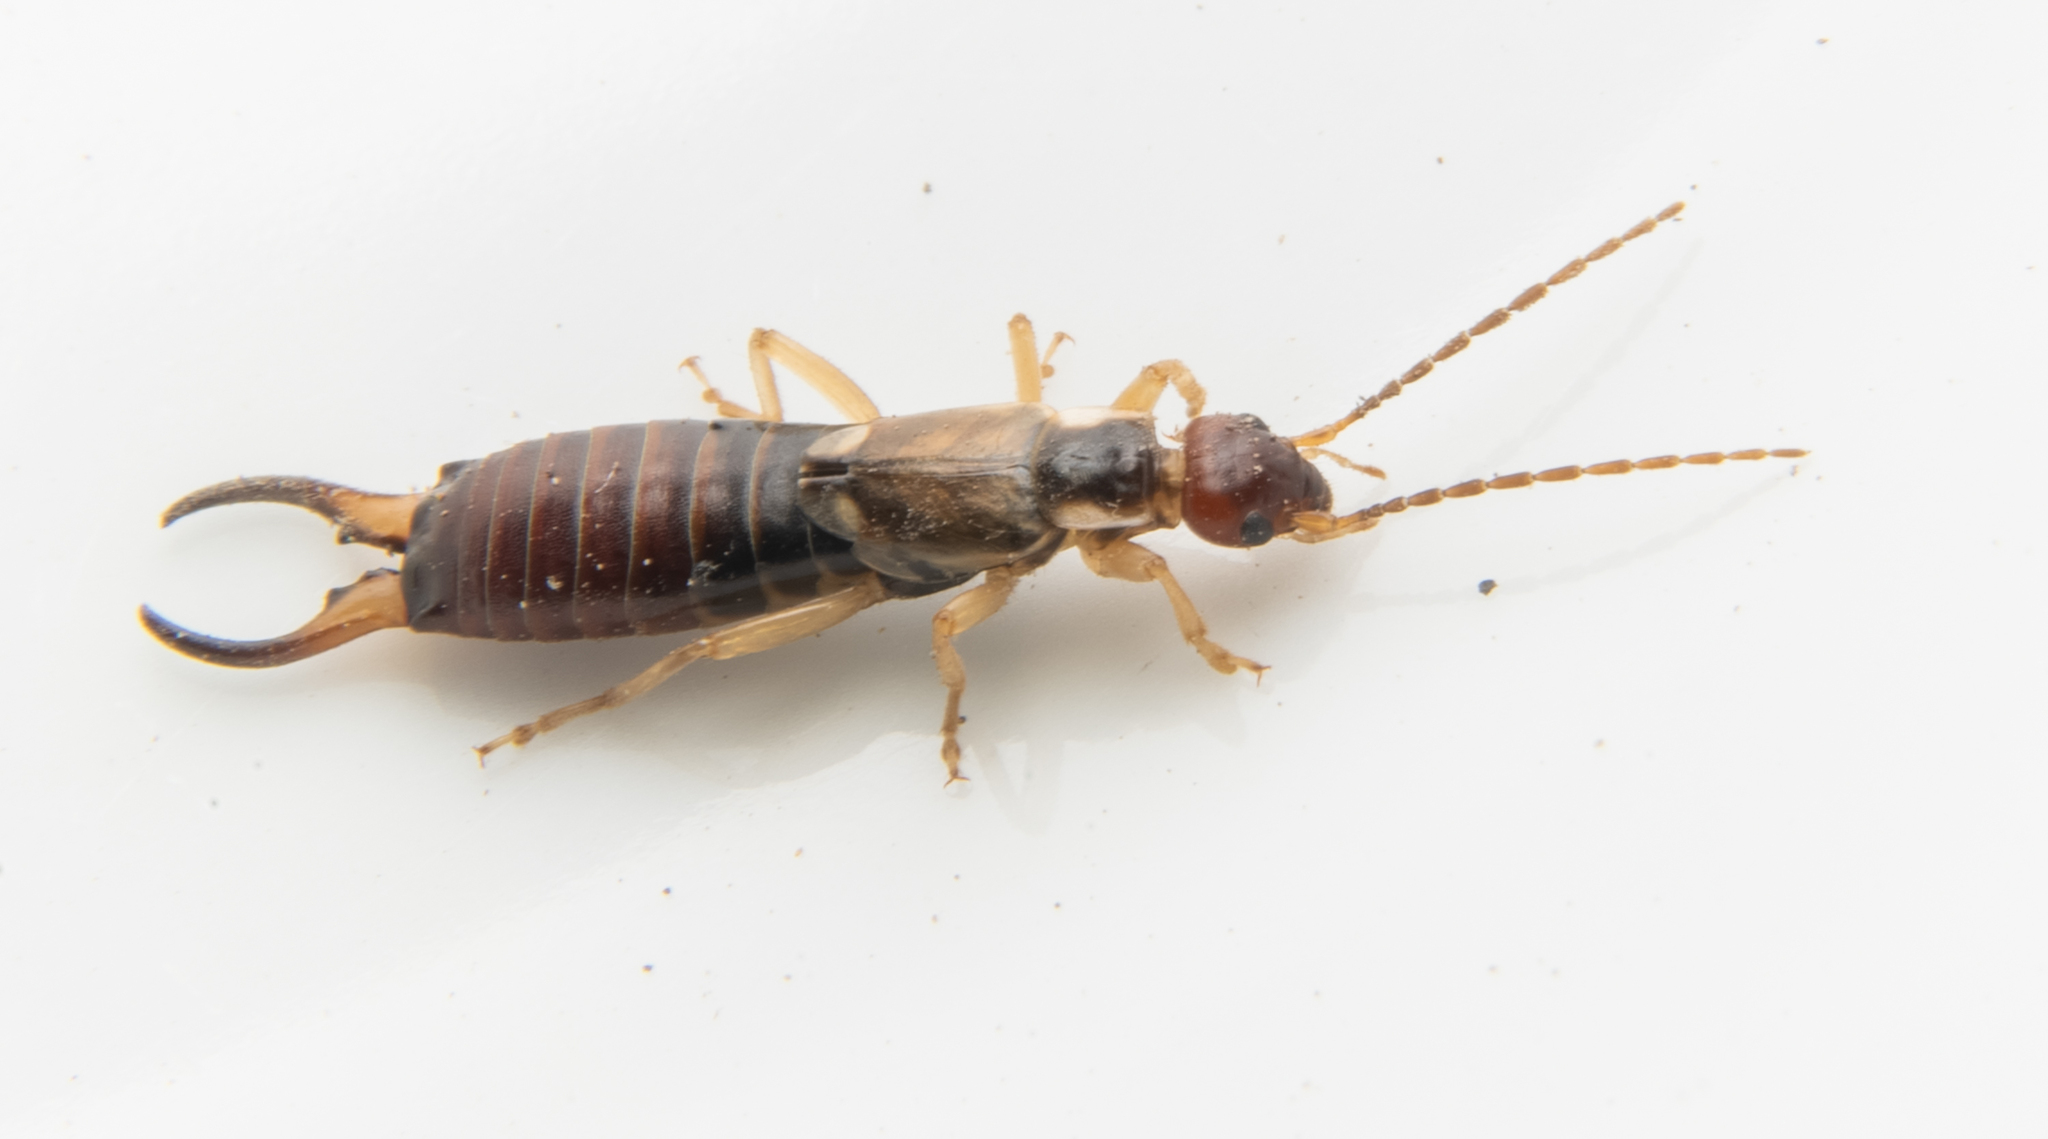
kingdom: Animalia
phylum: Arthropoda
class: Insecta
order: Dermaptera
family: Forficulidae
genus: Forficula
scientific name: Forficula dentata
